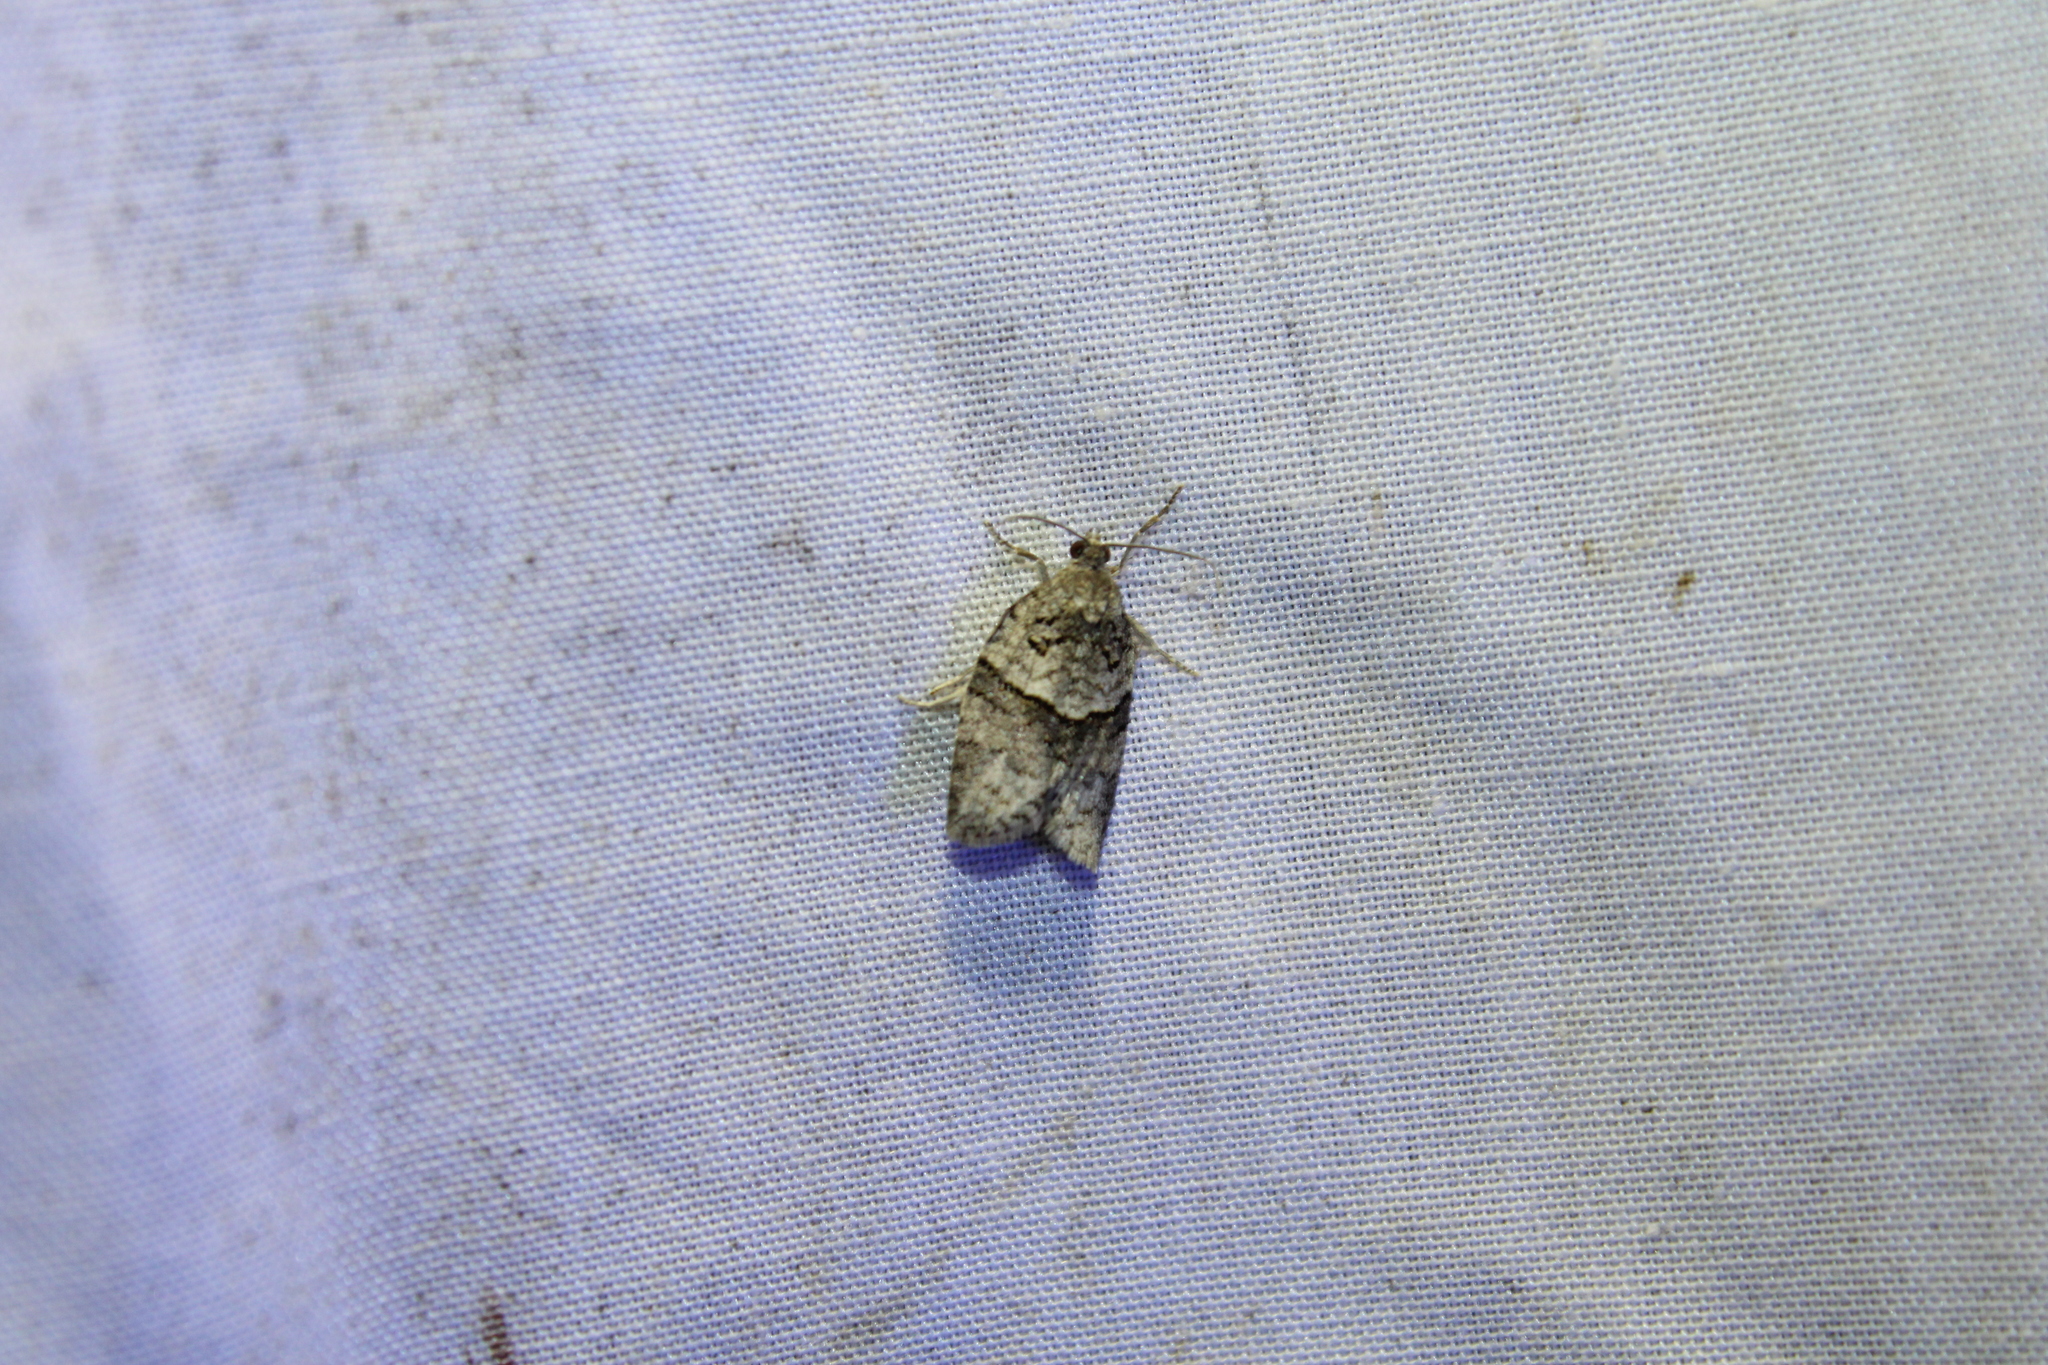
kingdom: Animalia
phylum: Arthropoda
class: Insecta
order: Lepidoptera
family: Tortricidae
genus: Syndemis
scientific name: Syndemis afflictana
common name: Gray leafroller moth
